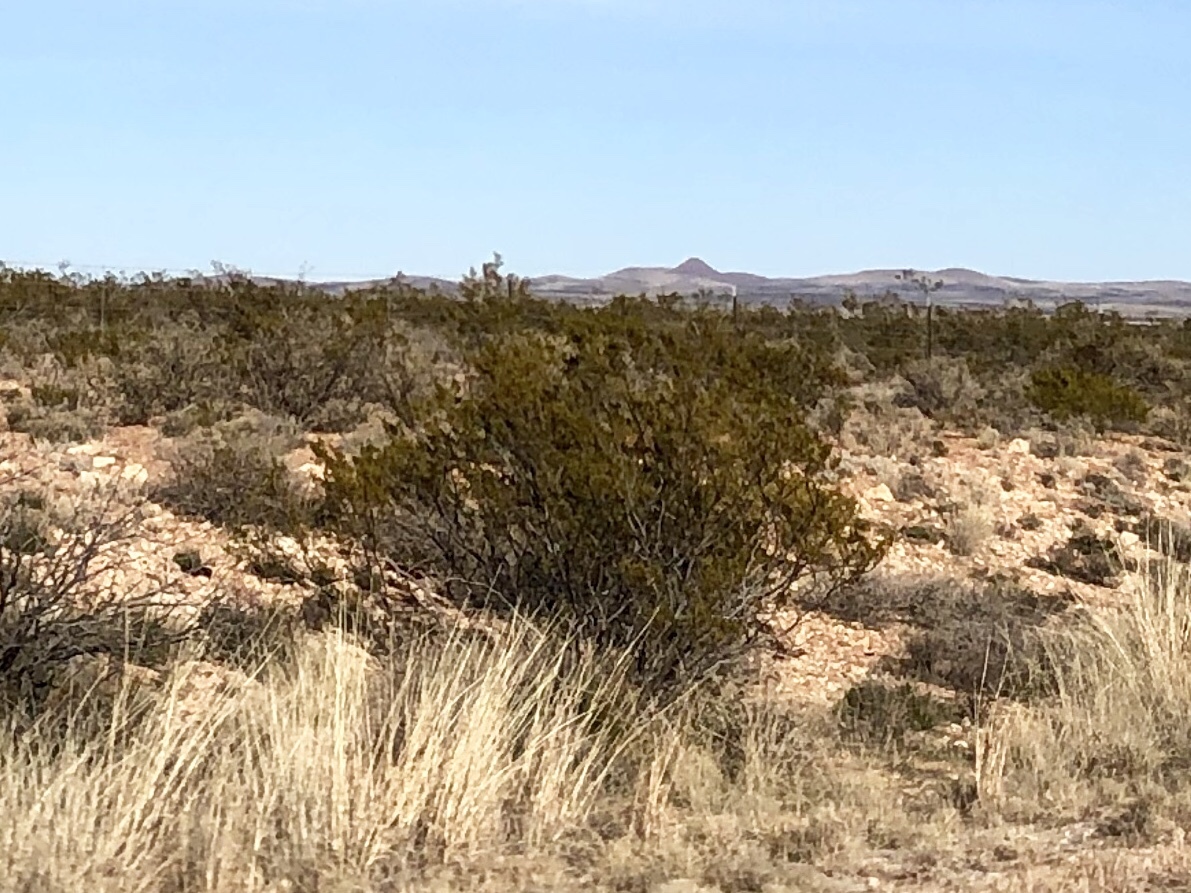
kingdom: Plantae
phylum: Tracheophyta
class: Magnoliopsida
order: Zygophyllales
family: Zygophyllaceae
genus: Larrea
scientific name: Larrea tridentata
